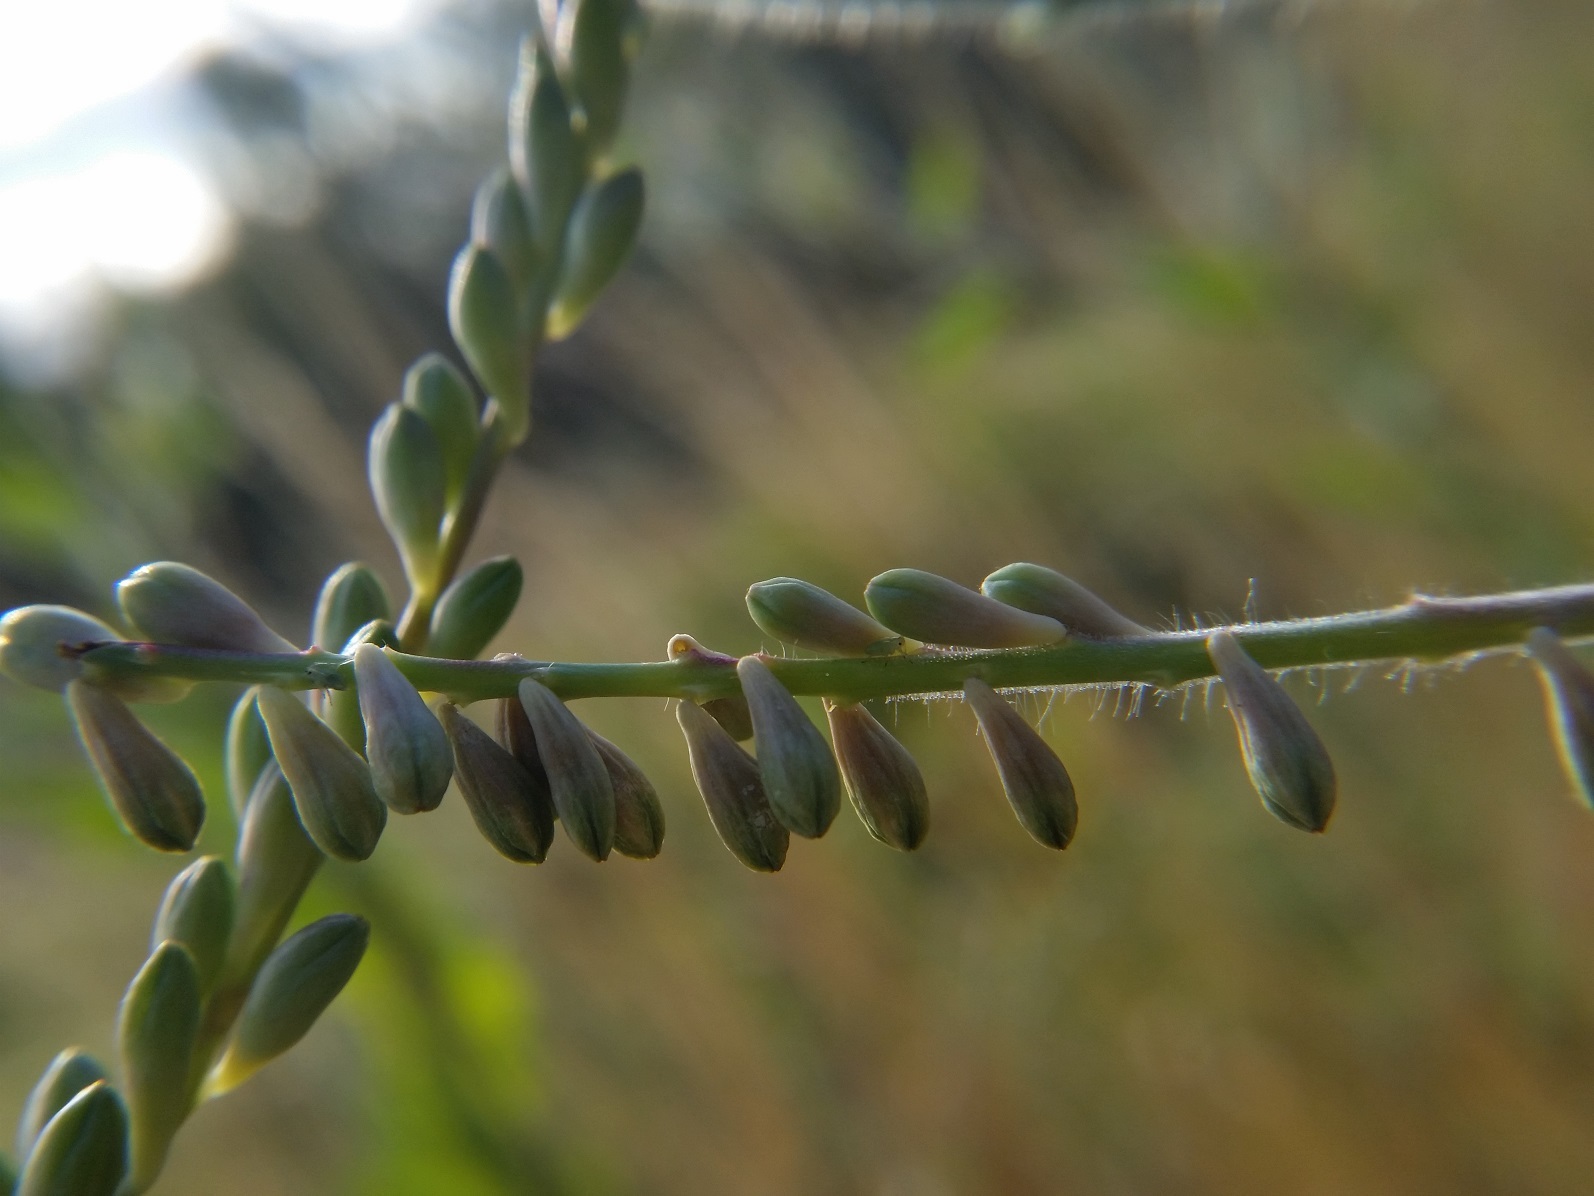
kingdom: Plantae
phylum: Tracheophyta
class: Magnoliopsida
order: Myrtales
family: Onagraceae
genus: Oenothera
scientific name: Oenothera curtiflora
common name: Velvetweed
